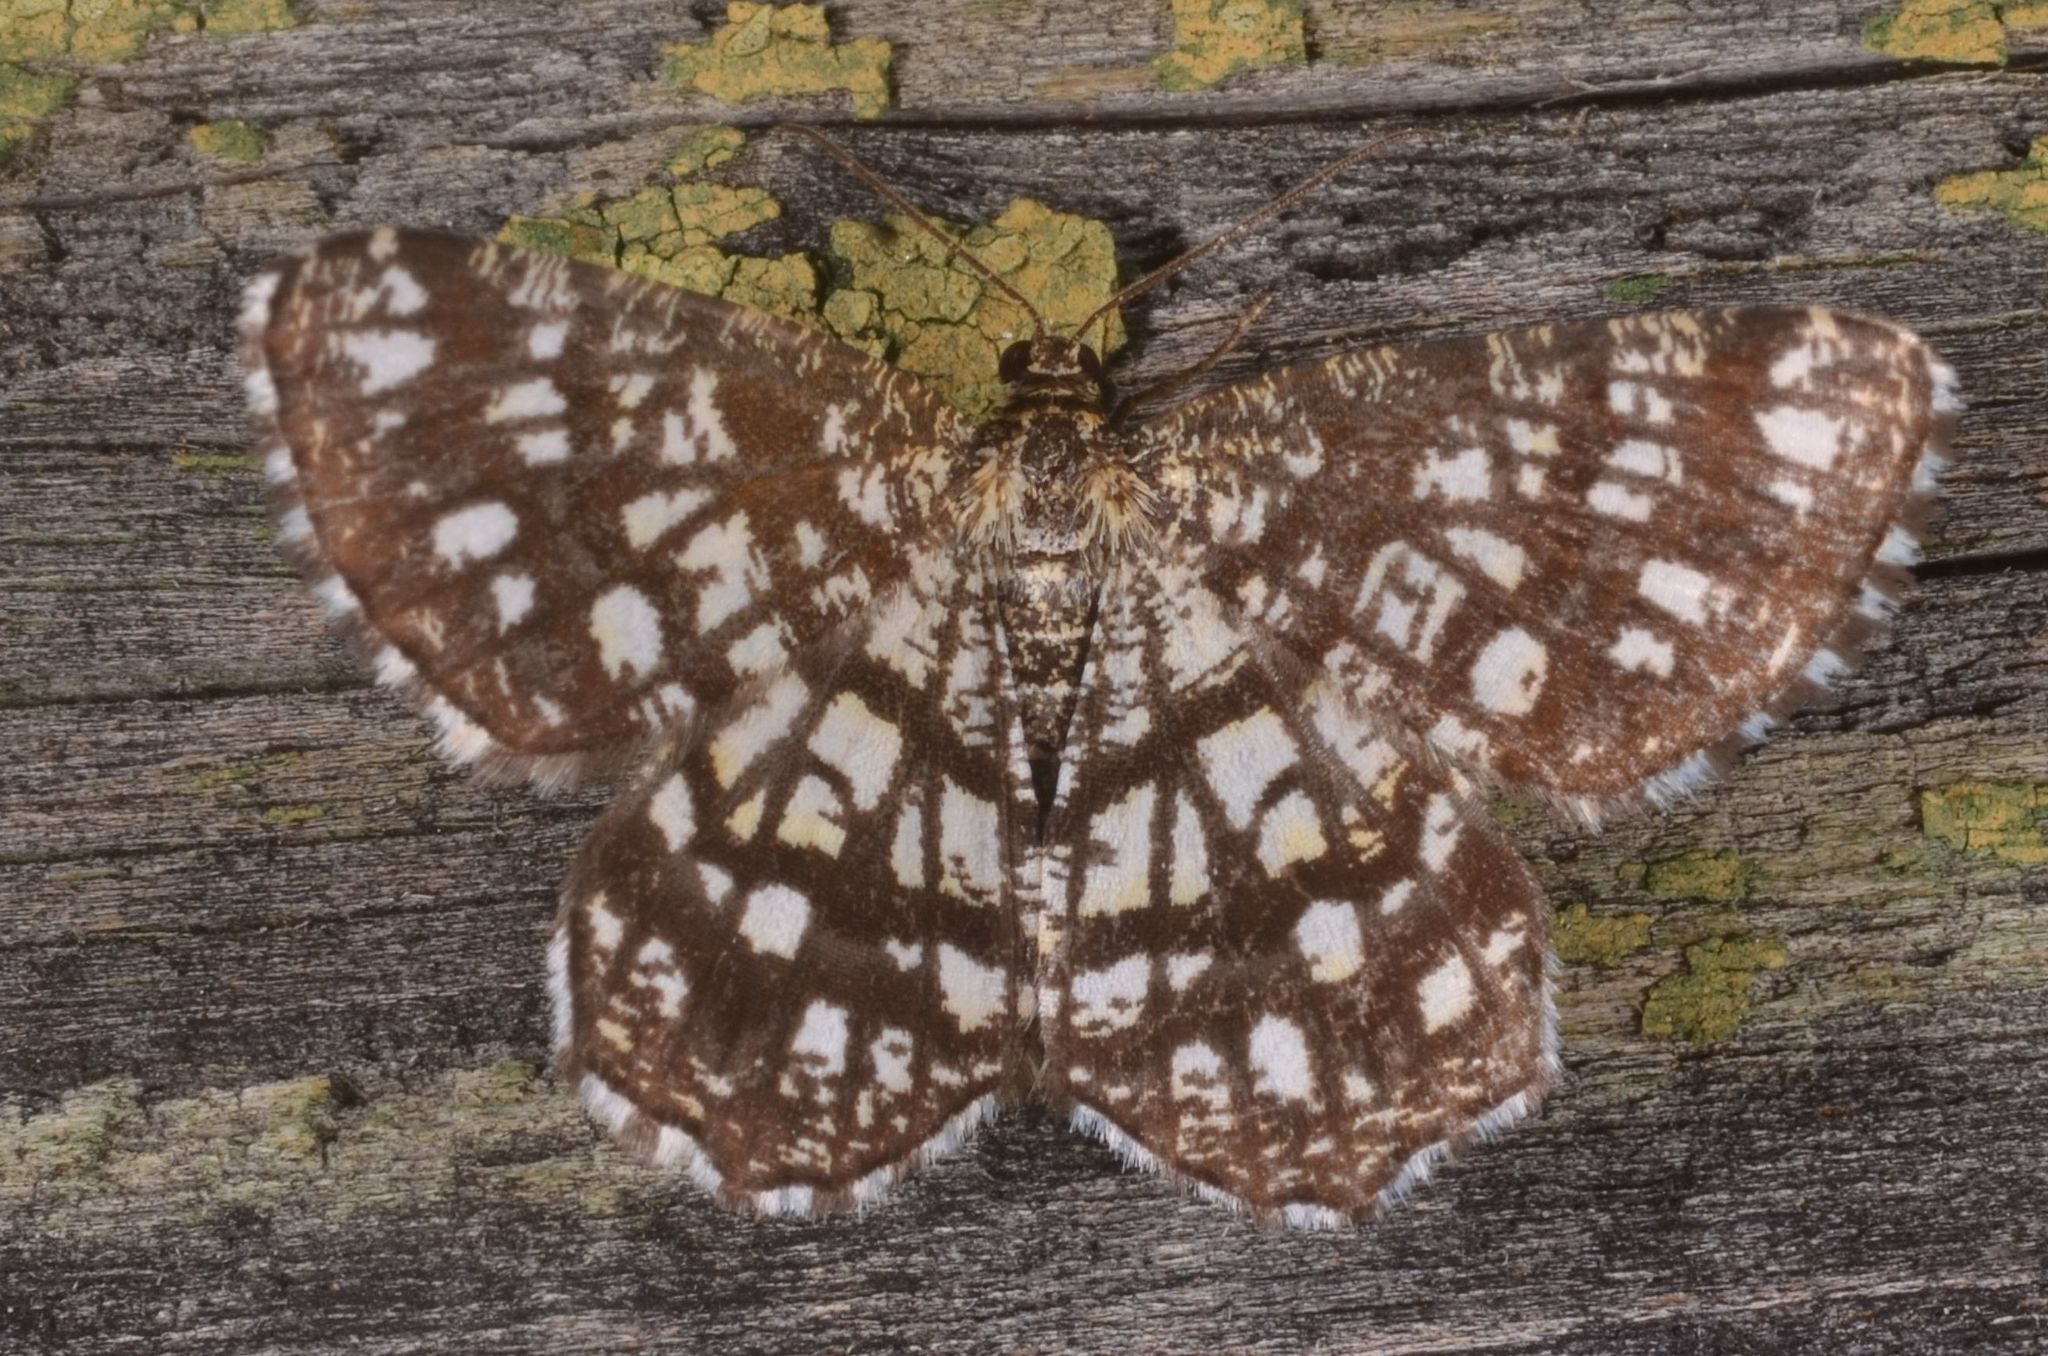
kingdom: Animalia
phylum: Arthropoda
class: Insecta
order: Lepidoptera
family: Geometridae
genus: Chiasmia
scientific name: Chiasmia clathrata
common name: Latticed heath
